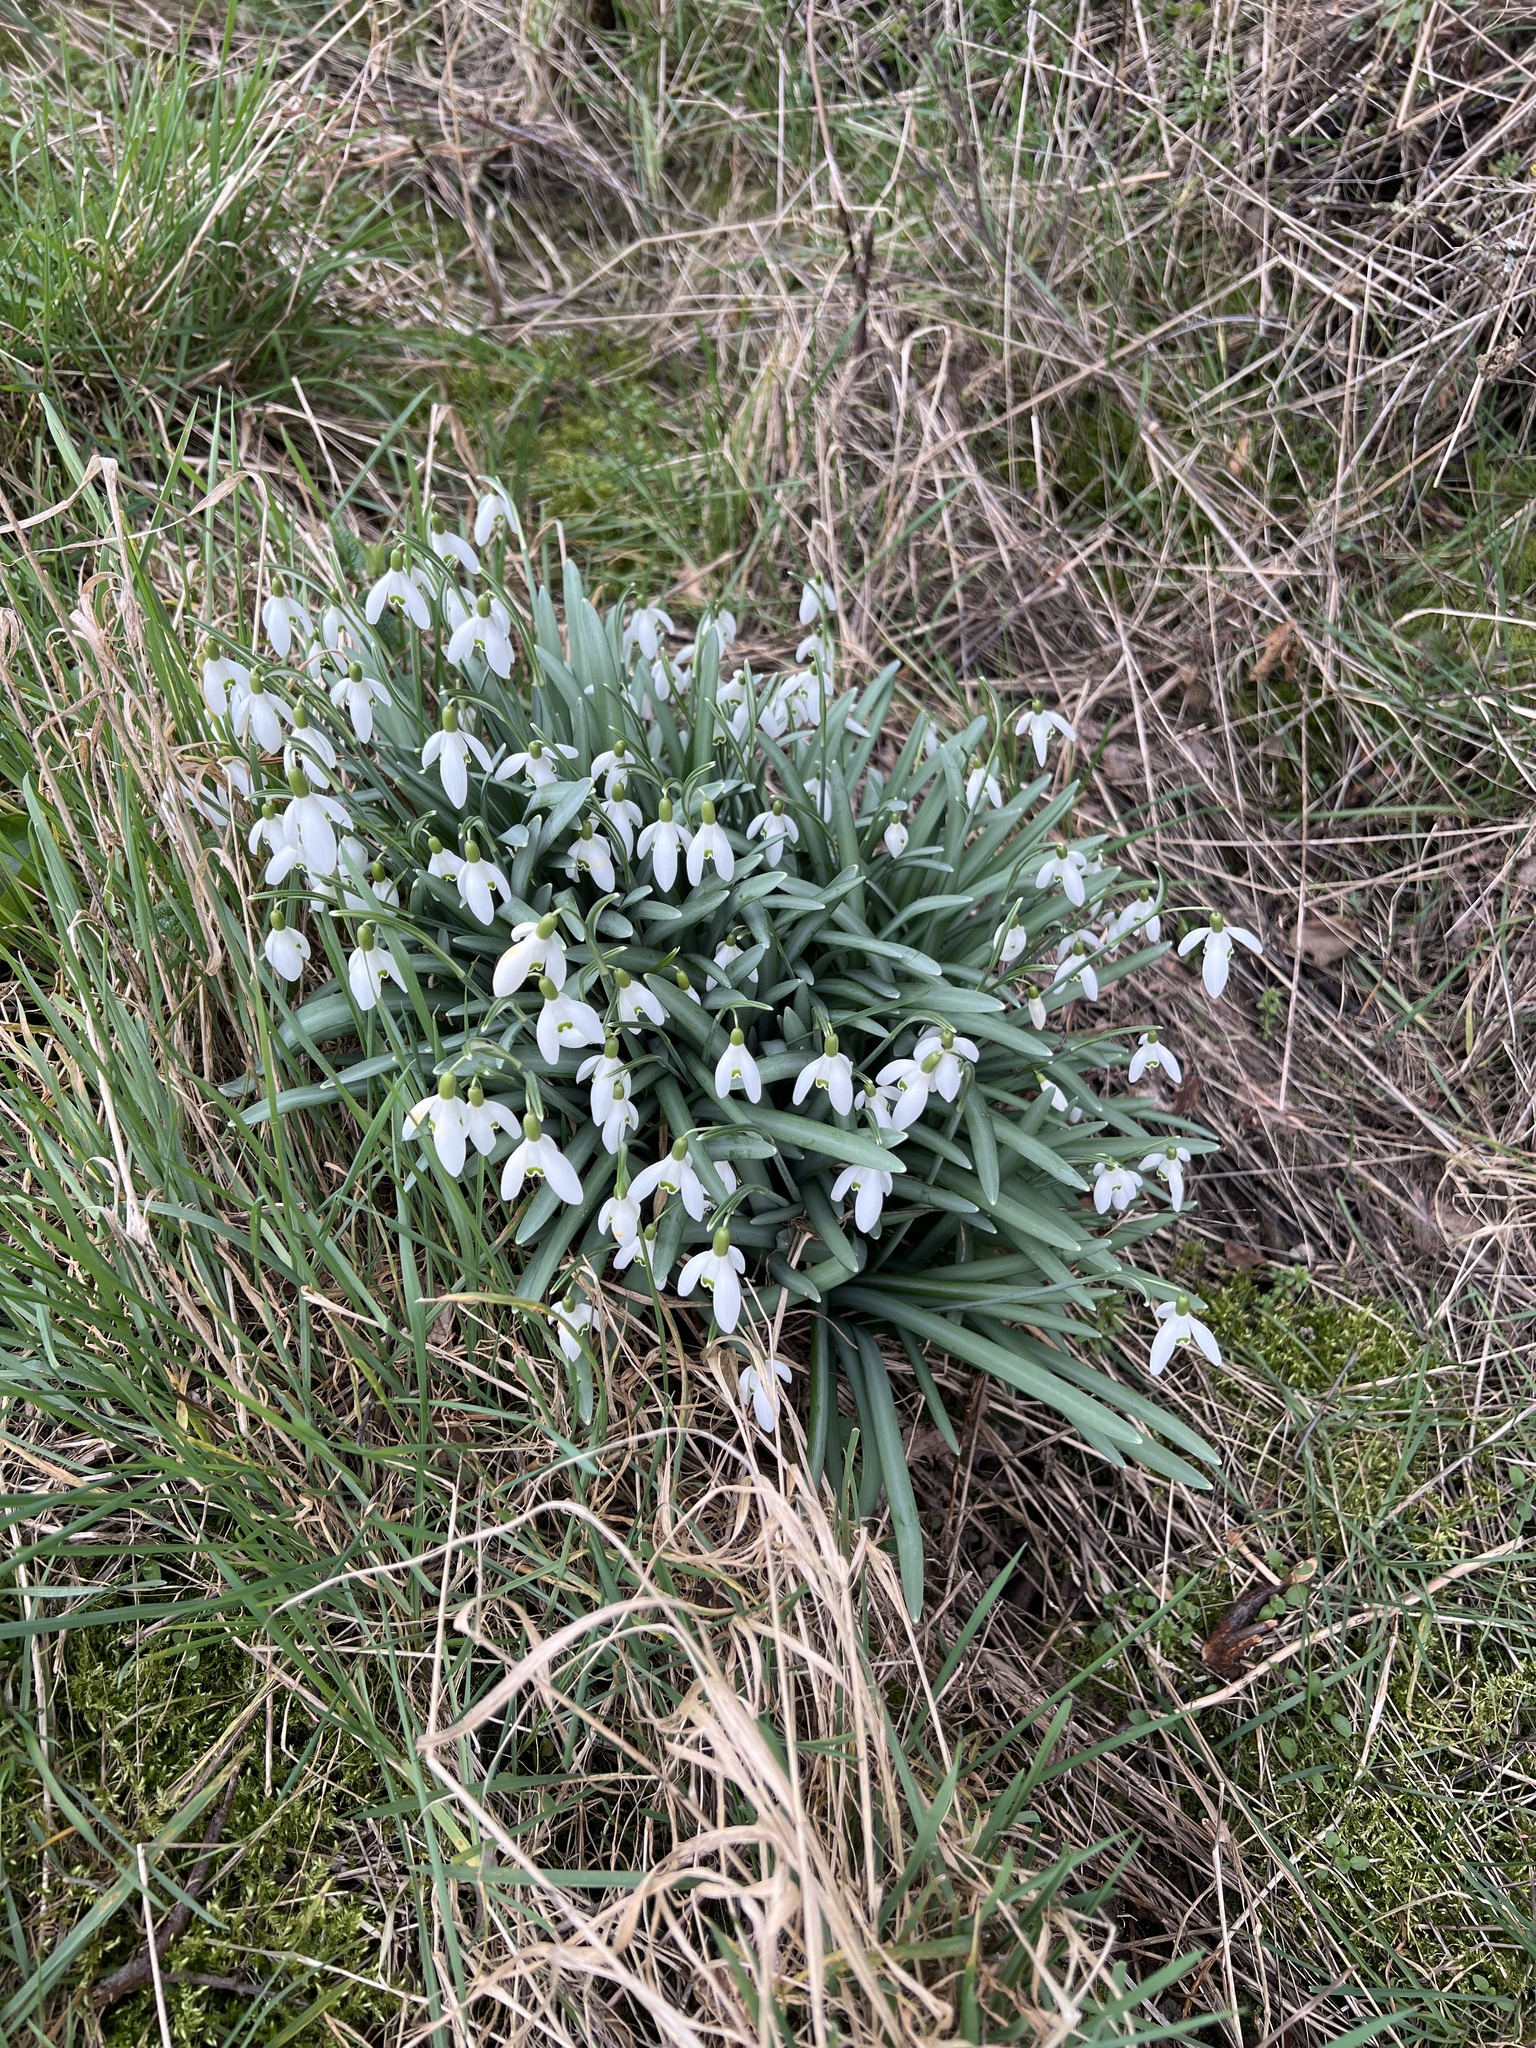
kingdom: Plantae
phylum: Tracheophyta
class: Liliopsida
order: Asparagales
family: Amaryllidaceae
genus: Galanthus
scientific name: Galanthus nivalis
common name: Snowdrop
